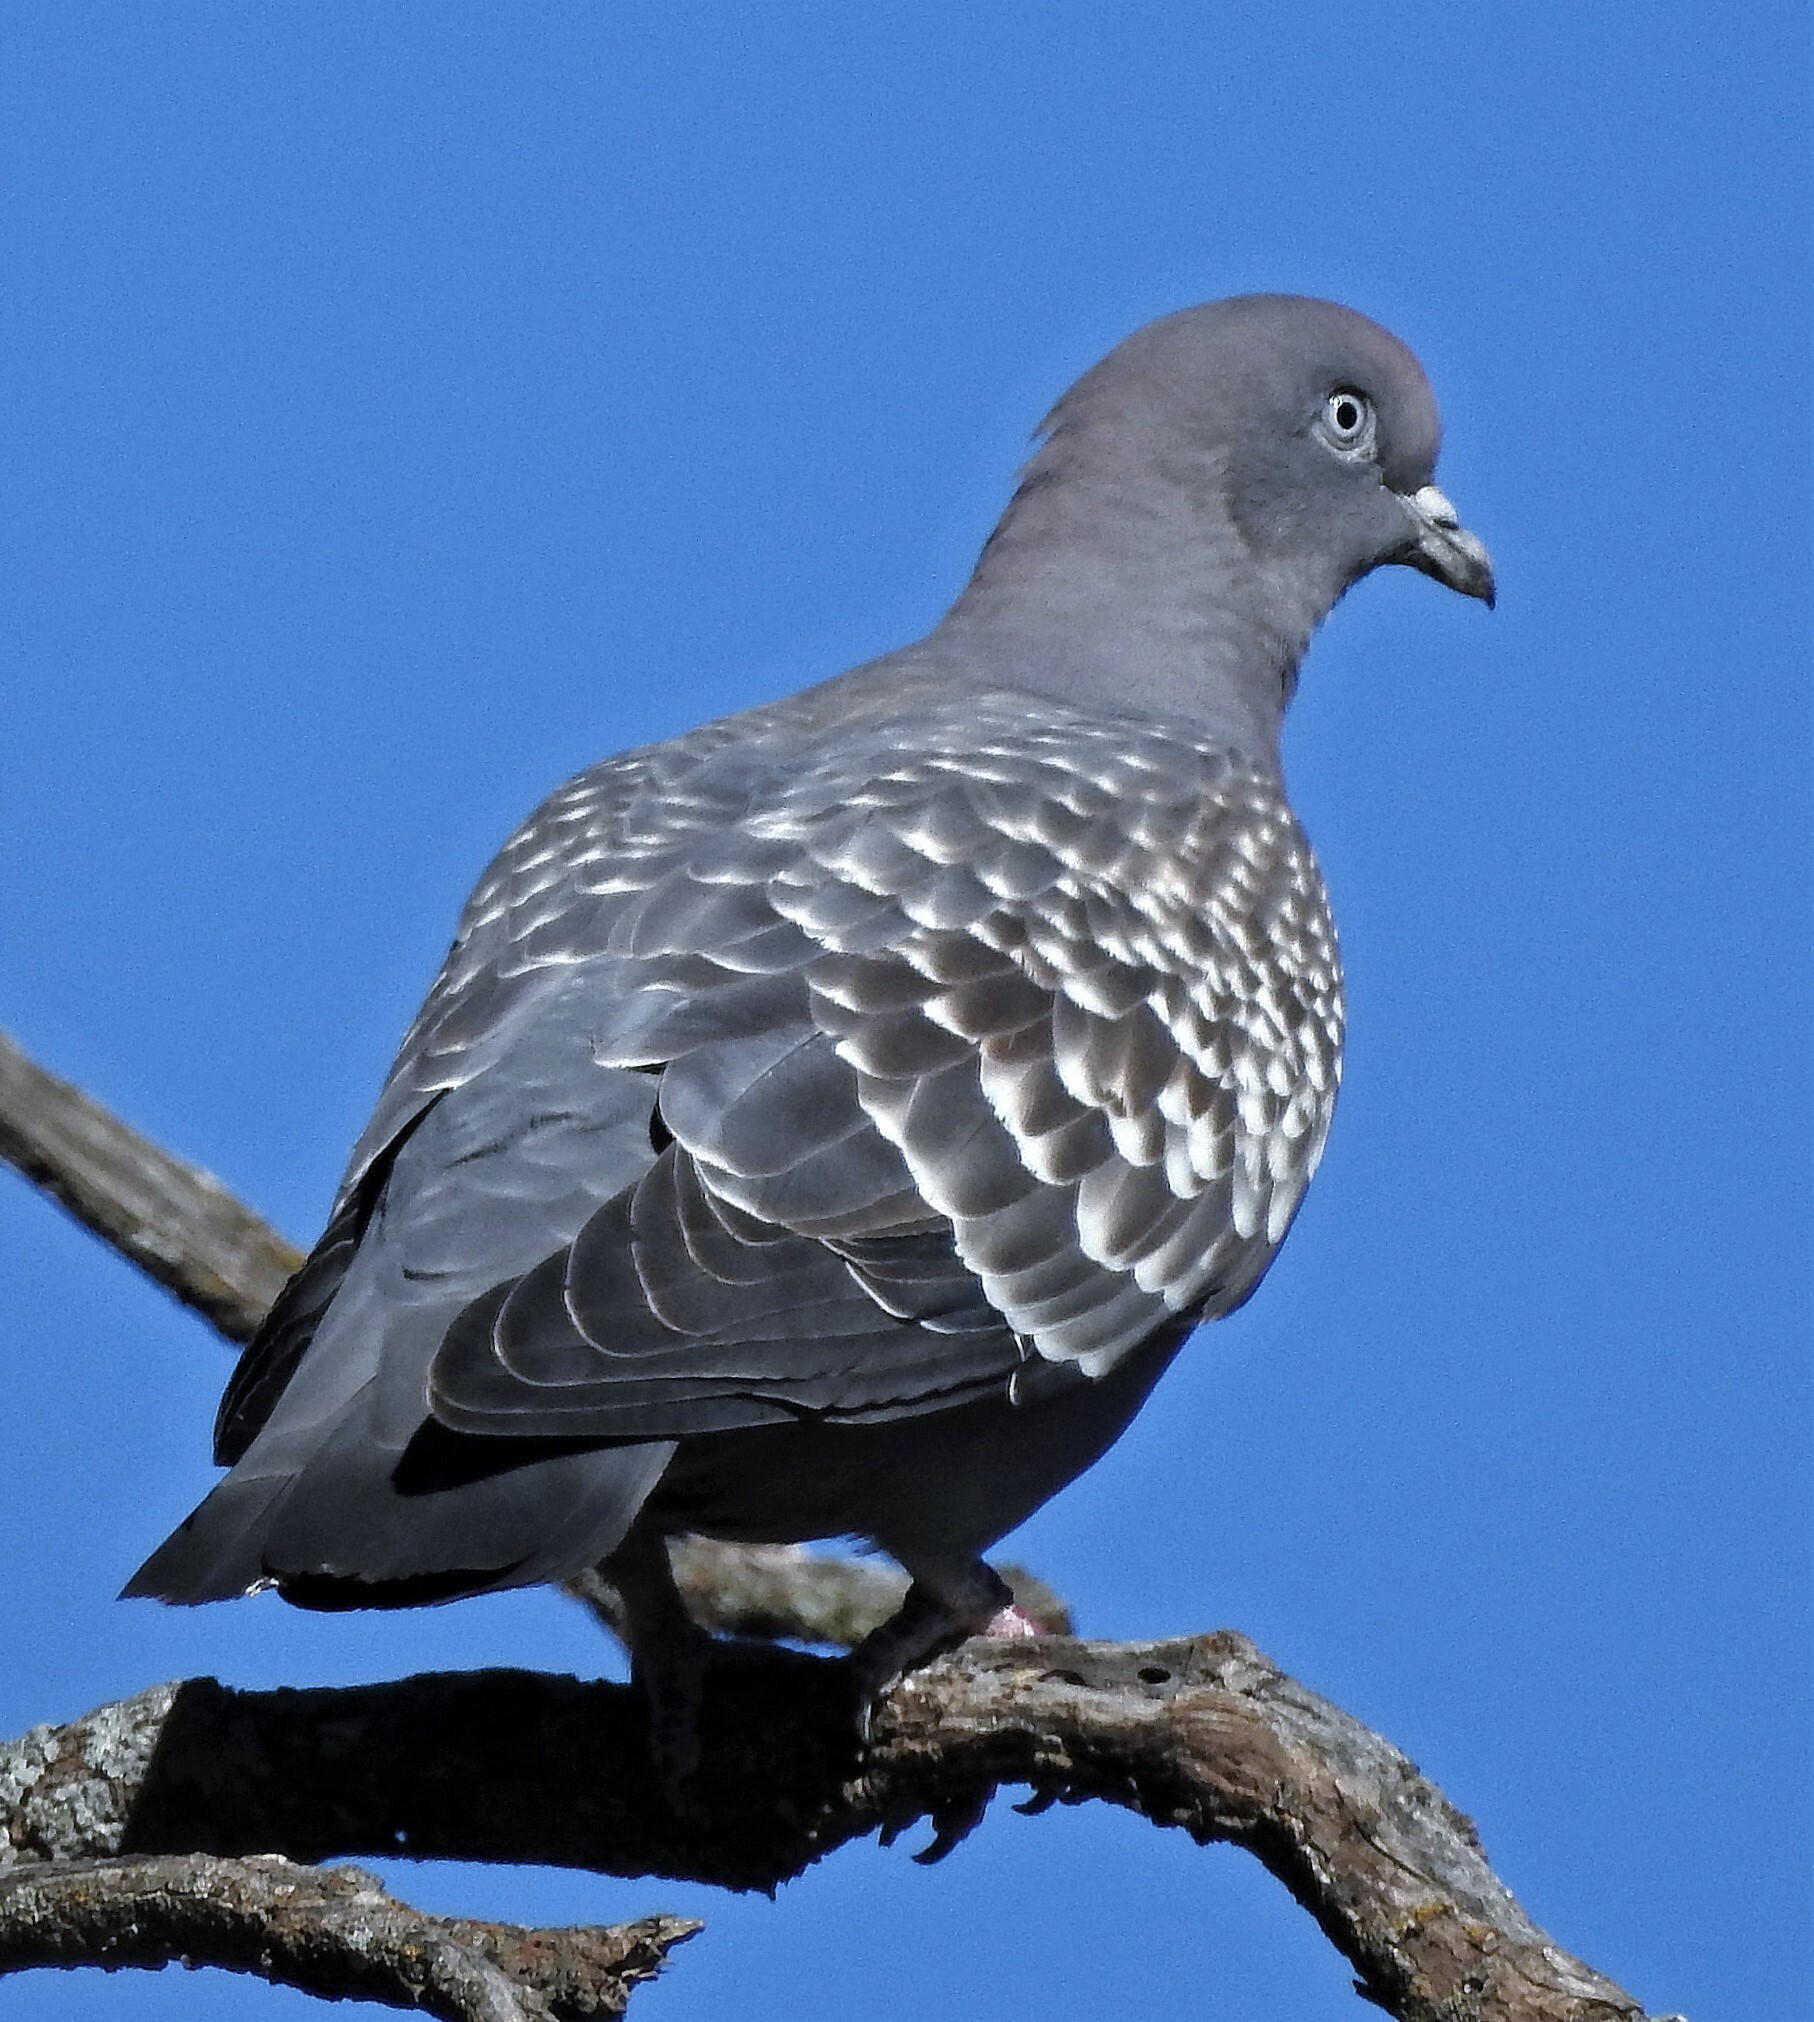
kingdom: Animalia
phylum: Chordata
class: Aves
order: Columbiformes
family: Columbidae
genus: Patagioenas
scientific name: Patagioenas maculosa
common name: Spot-winged pigeon
